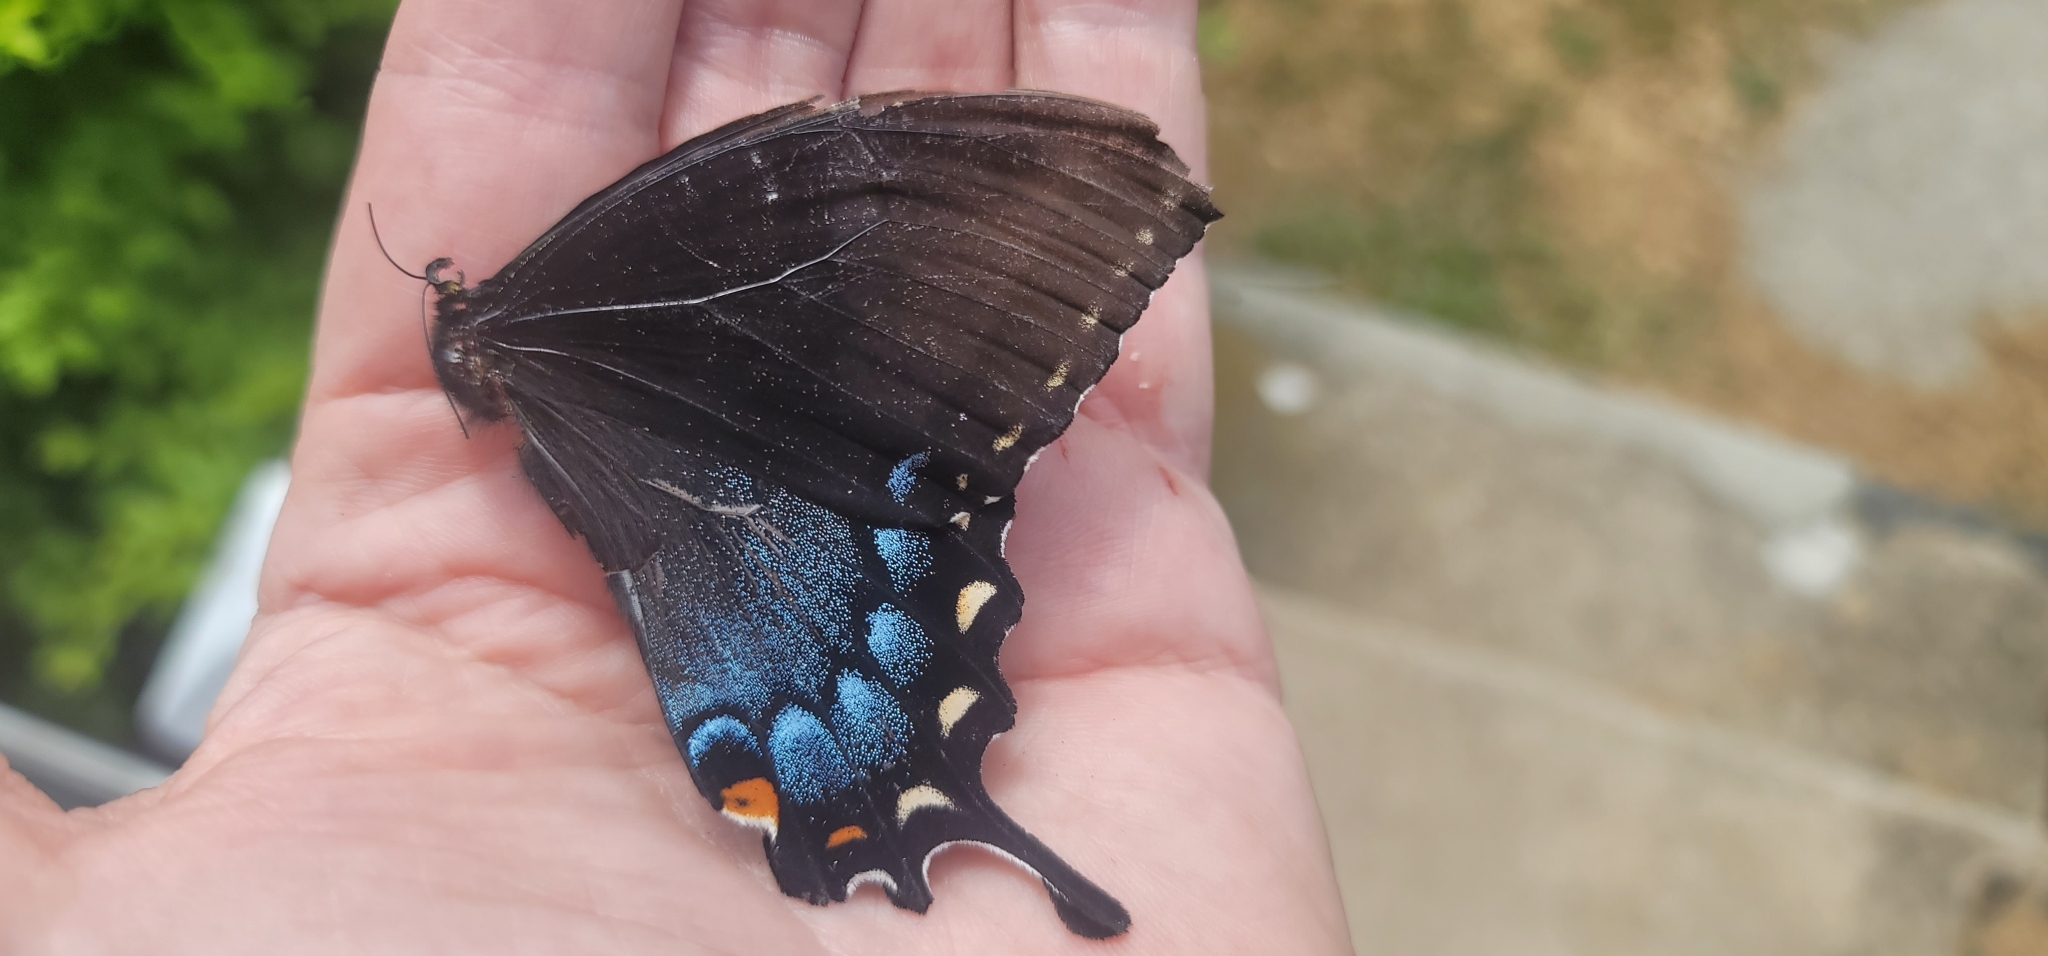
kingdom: Animalia
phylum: Arthropoda
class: Insecta
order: Lepidoptera
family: Papilionidae
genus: Papilio
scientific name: Papilio glaucus
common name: Tiger swallowtail
